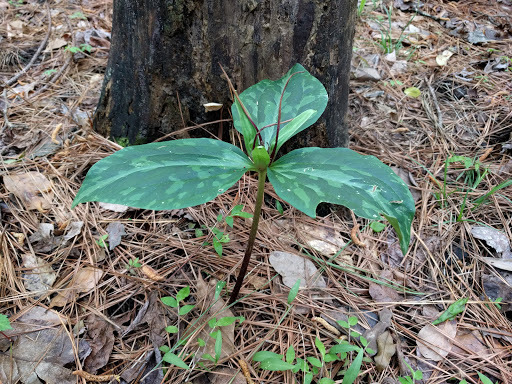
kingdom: Plantae
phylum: Tracheophyta
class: Liliopsida
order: Liliales
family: Melanthiaceae
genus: Trillium
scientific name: Trillium ludovicianum
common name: Louisiana toadshade
